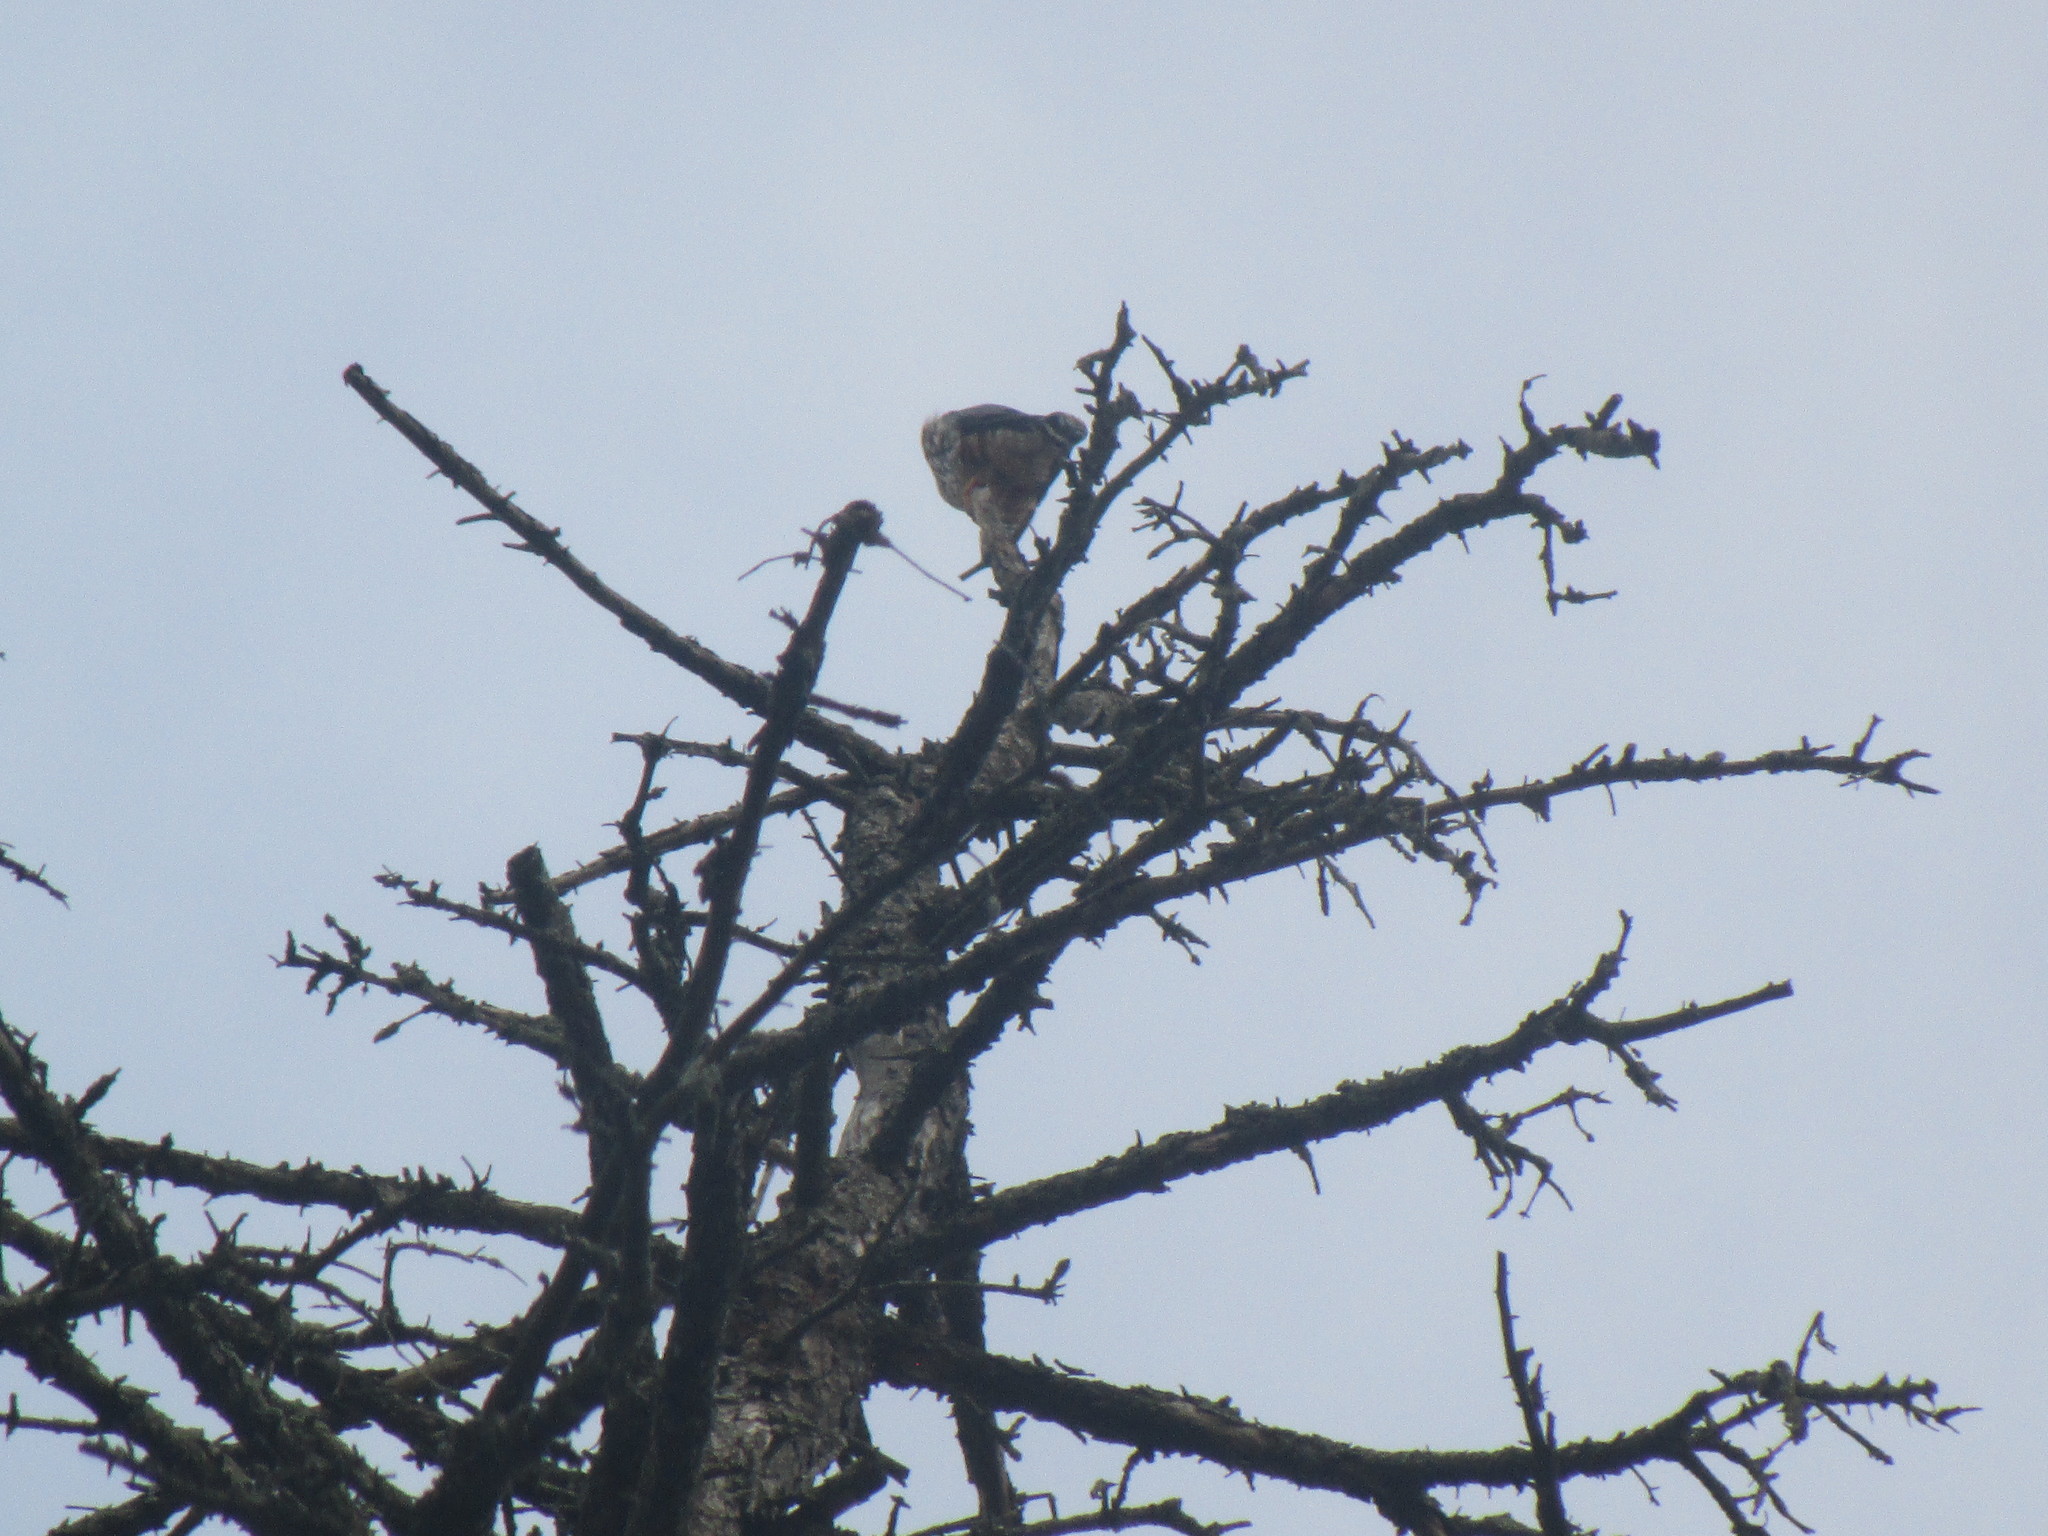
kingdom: Animalia
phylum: Chordata
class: Aves
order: Falconiformes
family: Falconidae
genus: Falco
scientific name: Falco columbarius
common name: Merlin
